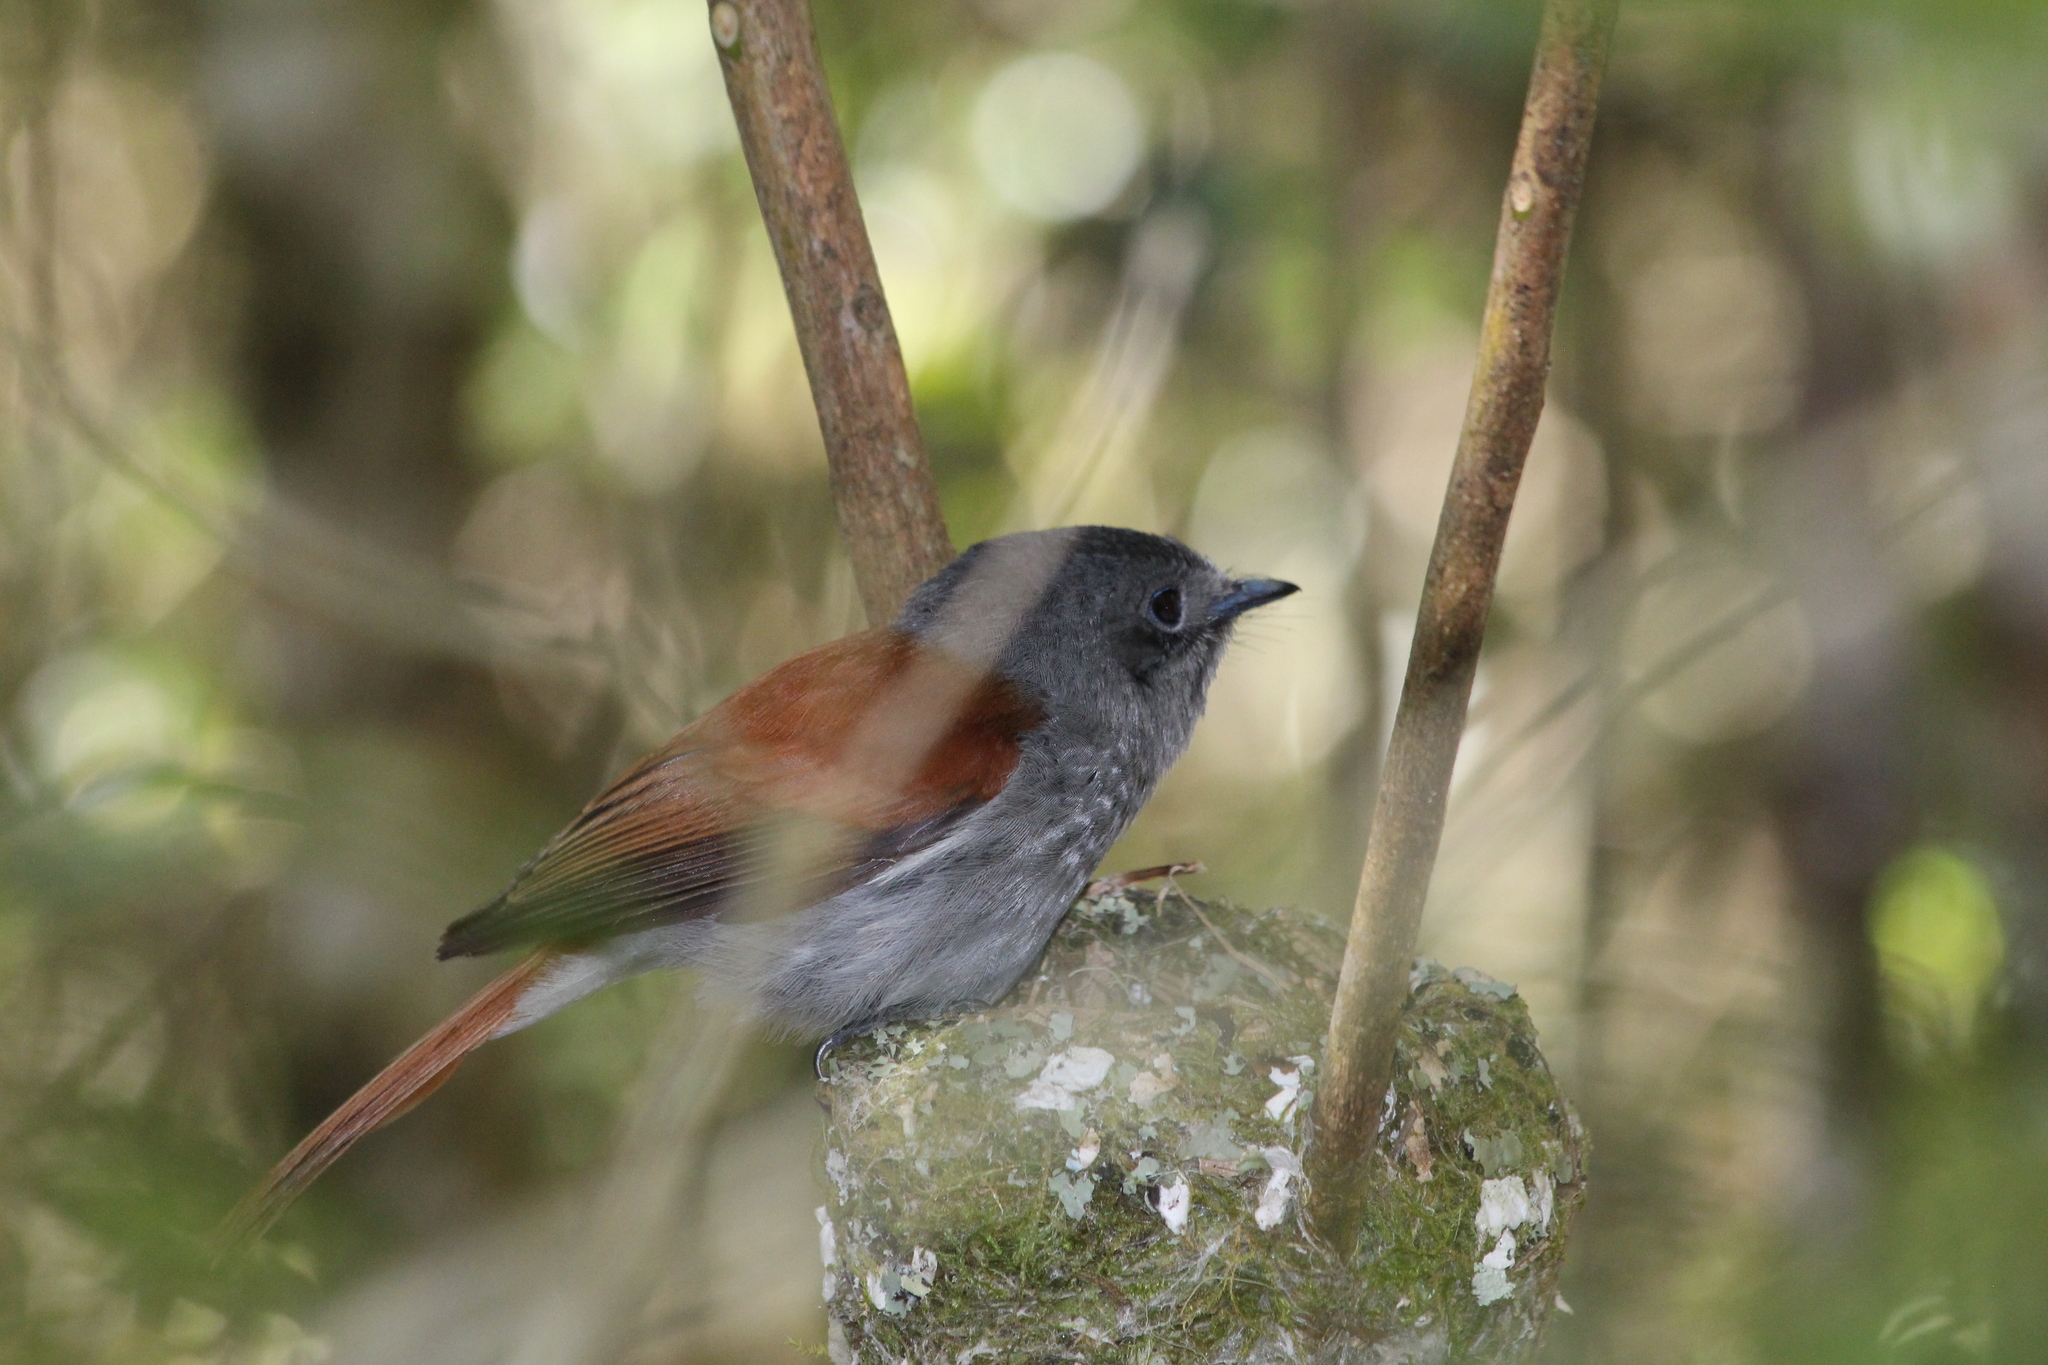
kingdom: Animalia
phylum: Chordata
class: Aves
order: Passeriformes
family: Monarchidae
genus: Terpsiphone
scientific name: Terpsiphone bourbonnensis
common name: Mascarene paradise flycatcher
